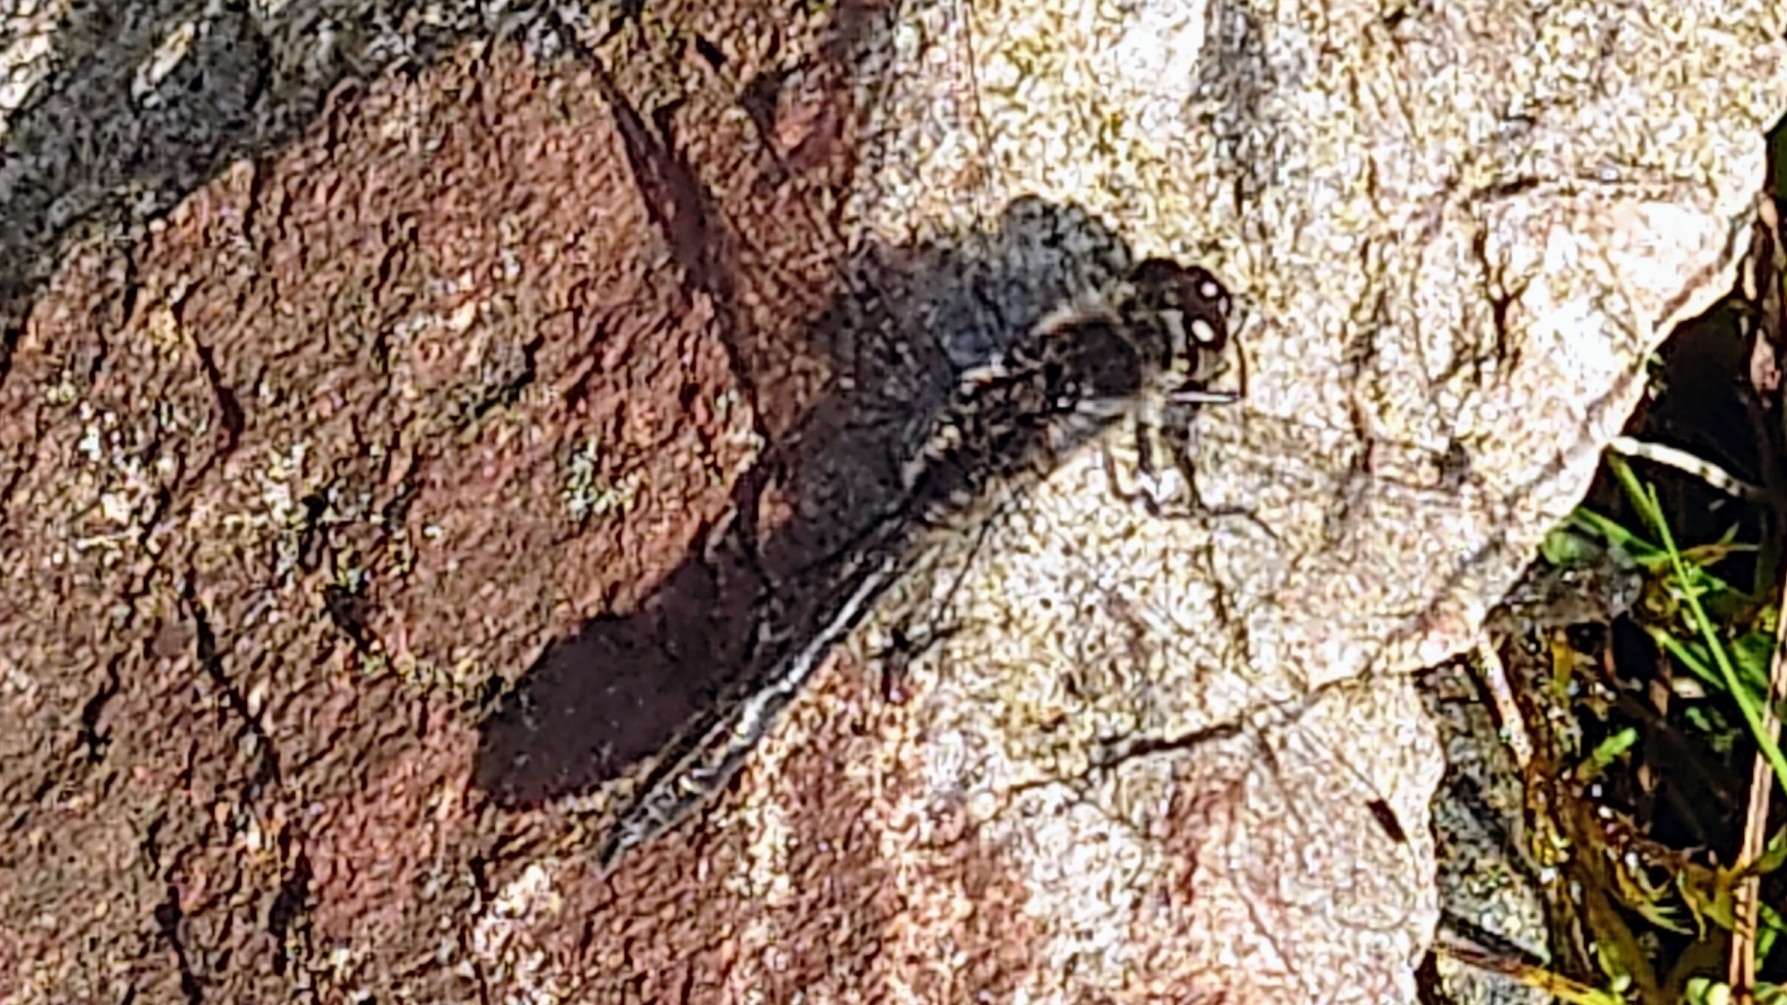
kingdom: Animalia
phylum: Arthropoda
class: Insecta
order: Odonata
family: Libellulidae
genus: Sympetrum
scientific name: Sympetrum danae
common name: Black darter
